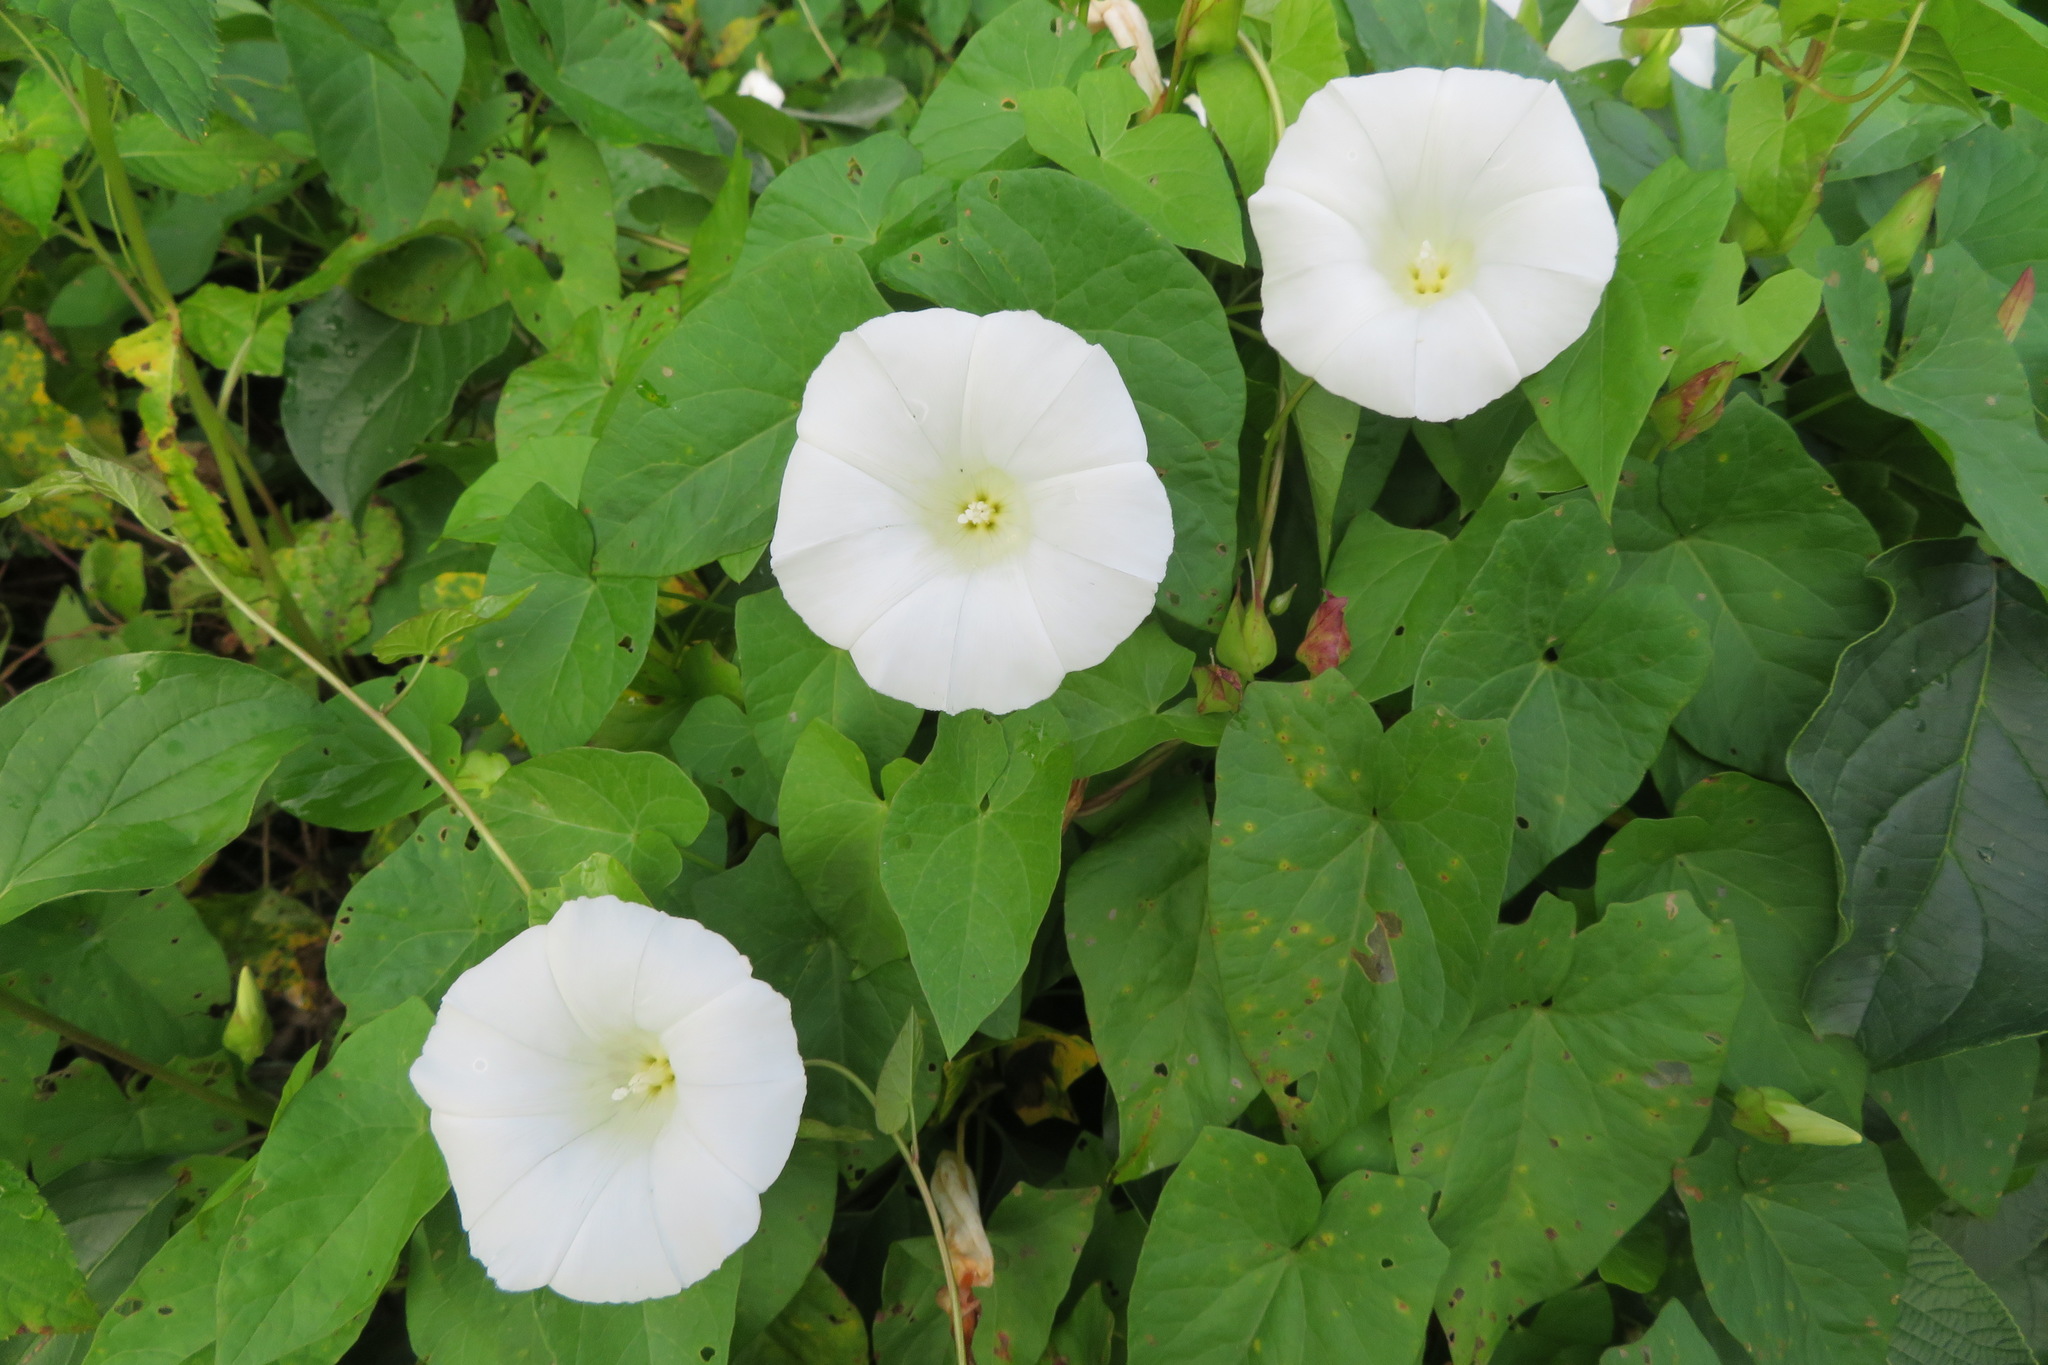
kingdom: Plantae
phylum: Tracheophyta
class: Magnoliopsida
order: Solanales
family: Convolvulaceae
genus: Calystegia
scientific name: Calystegia sepium
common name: Hedge bindweed
